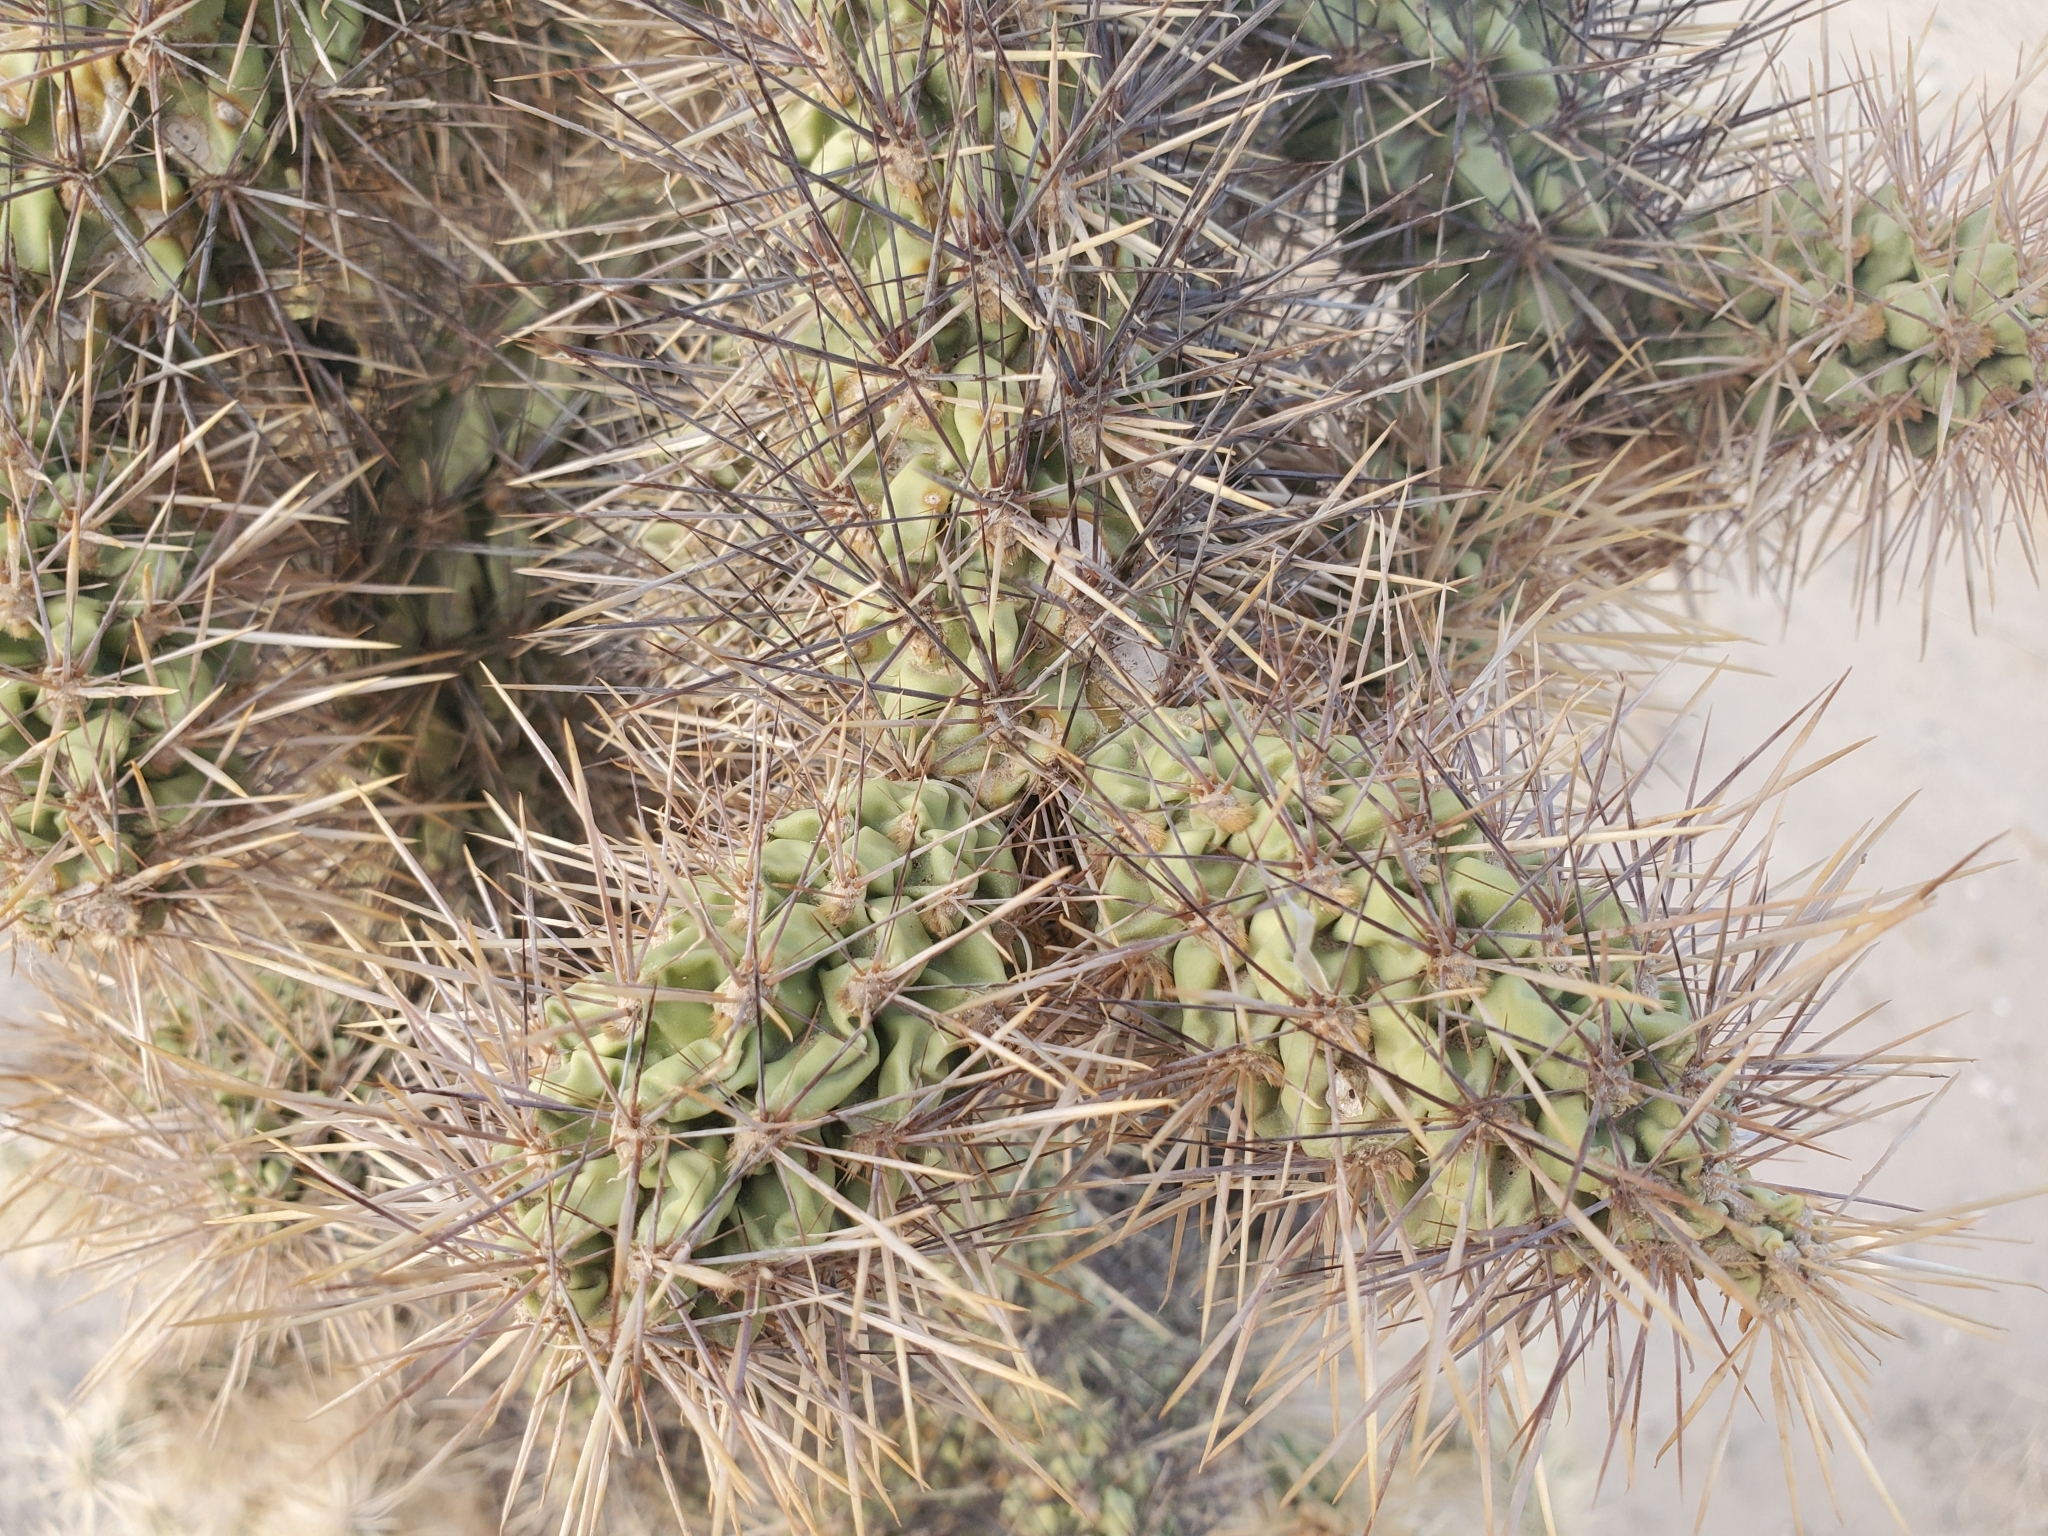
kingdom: Plantae
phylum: Tracheophyta
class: Magnoliopsida
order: Caryophyllales
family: Cactaceae
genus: Cylindropuntia
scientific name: Cylindropuntia munzii
